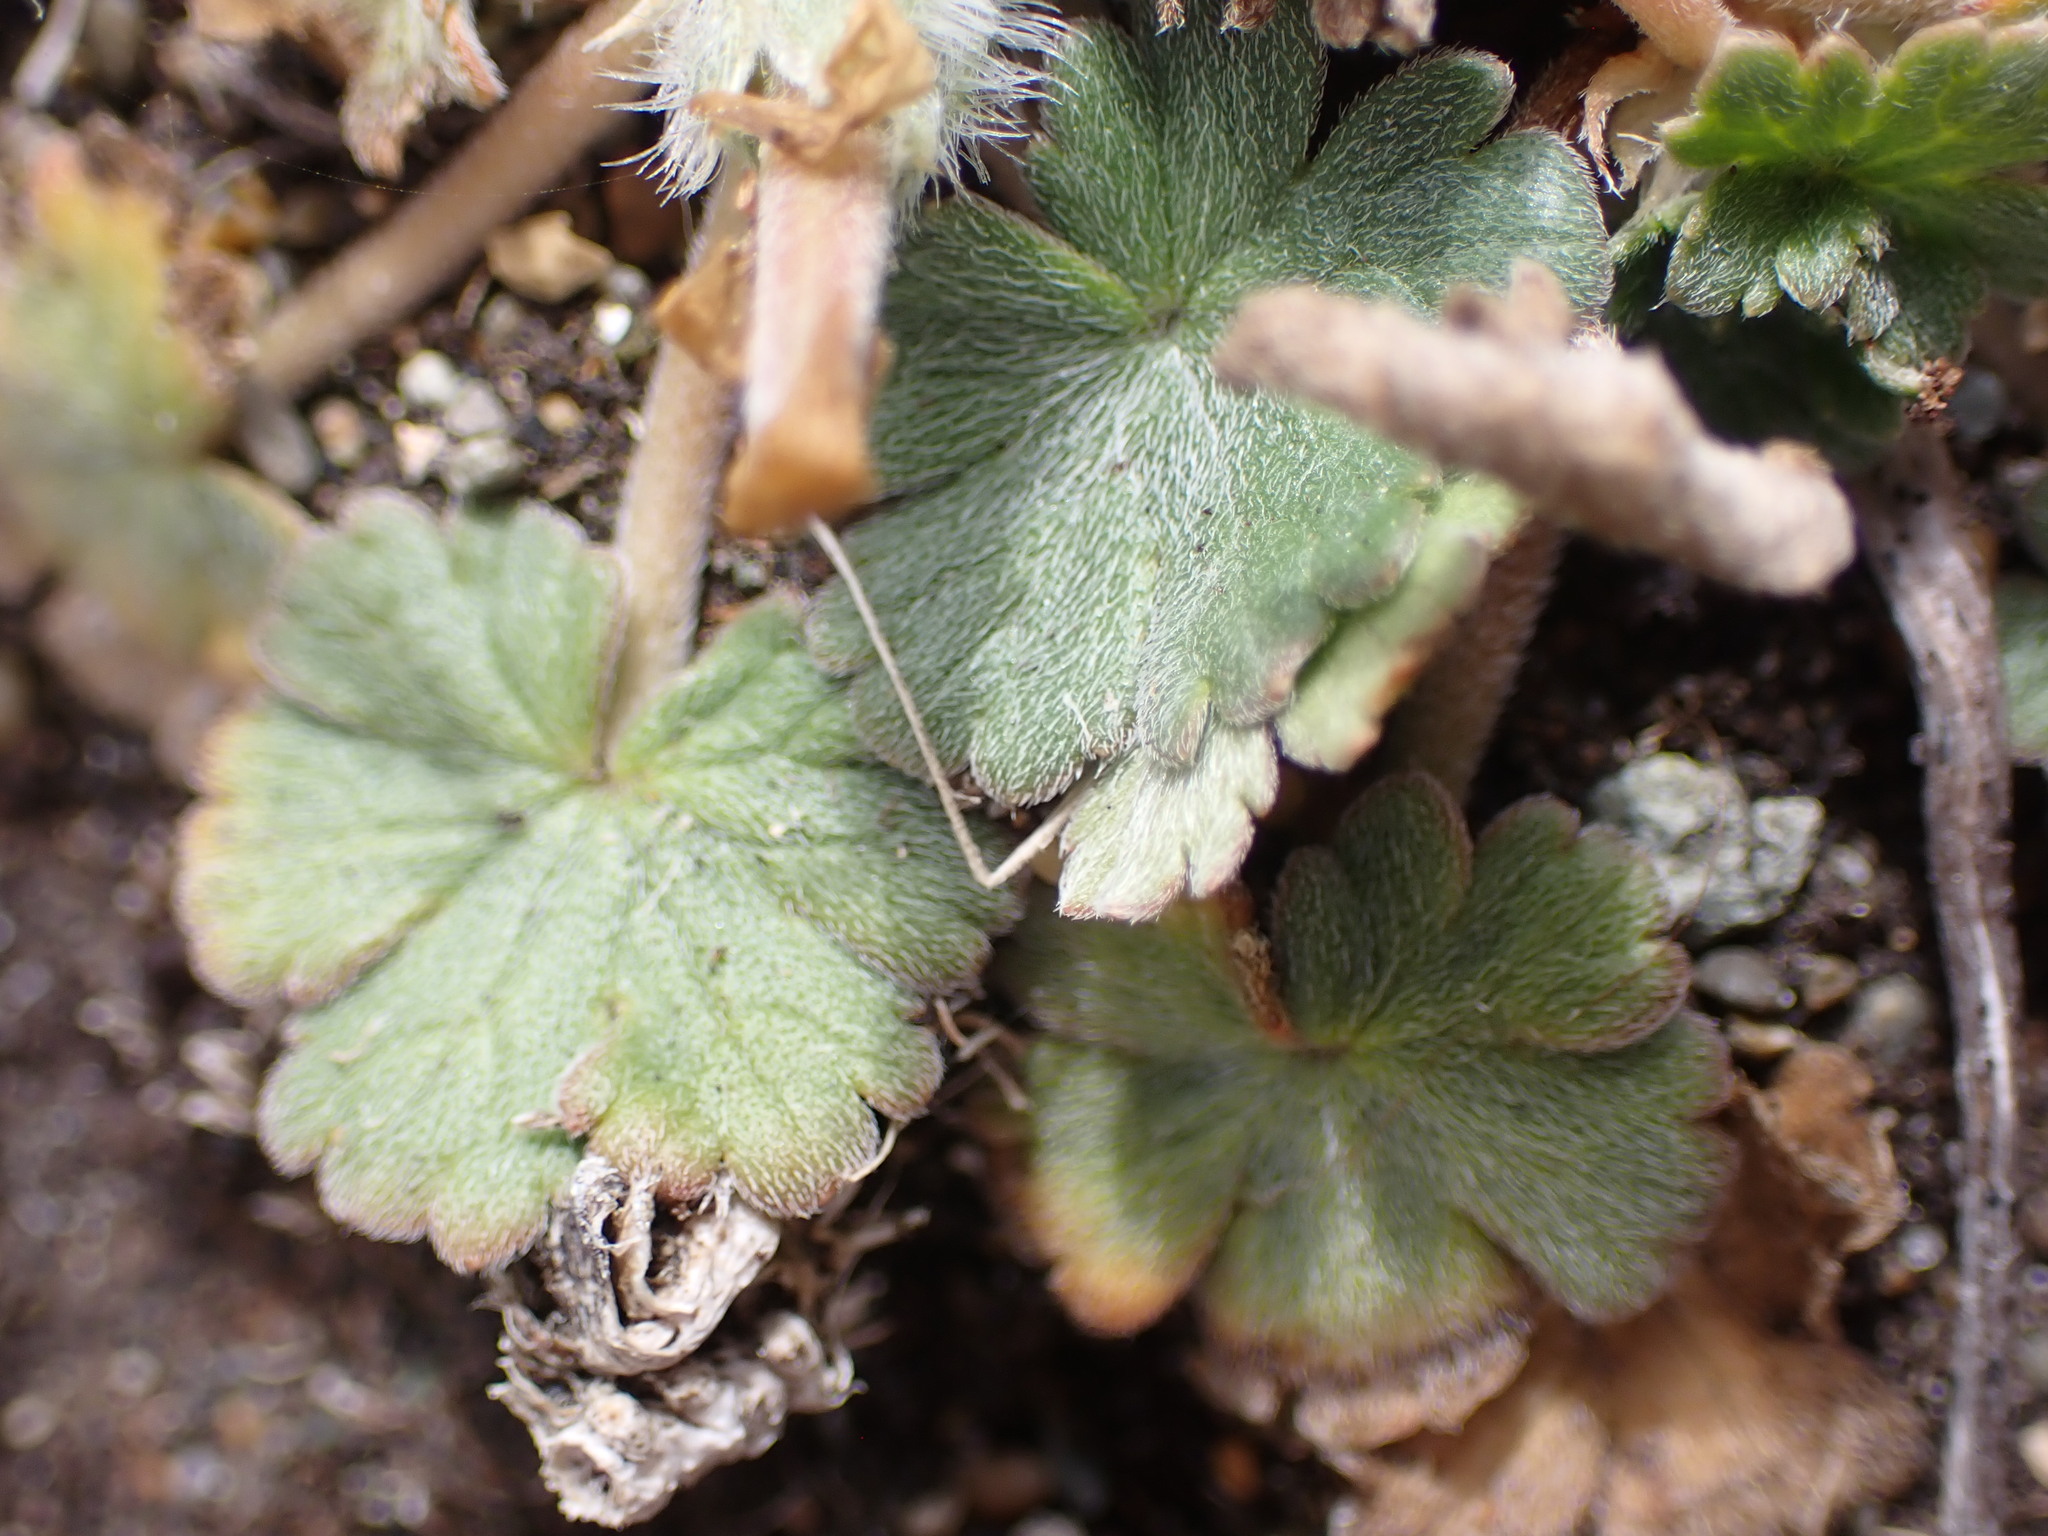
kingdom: Plantae
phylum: Tracheophyta
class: Magnoliopsida
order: Geraniales
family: Geraniaceae
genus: Geranium
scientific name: Geranium brevicaule
